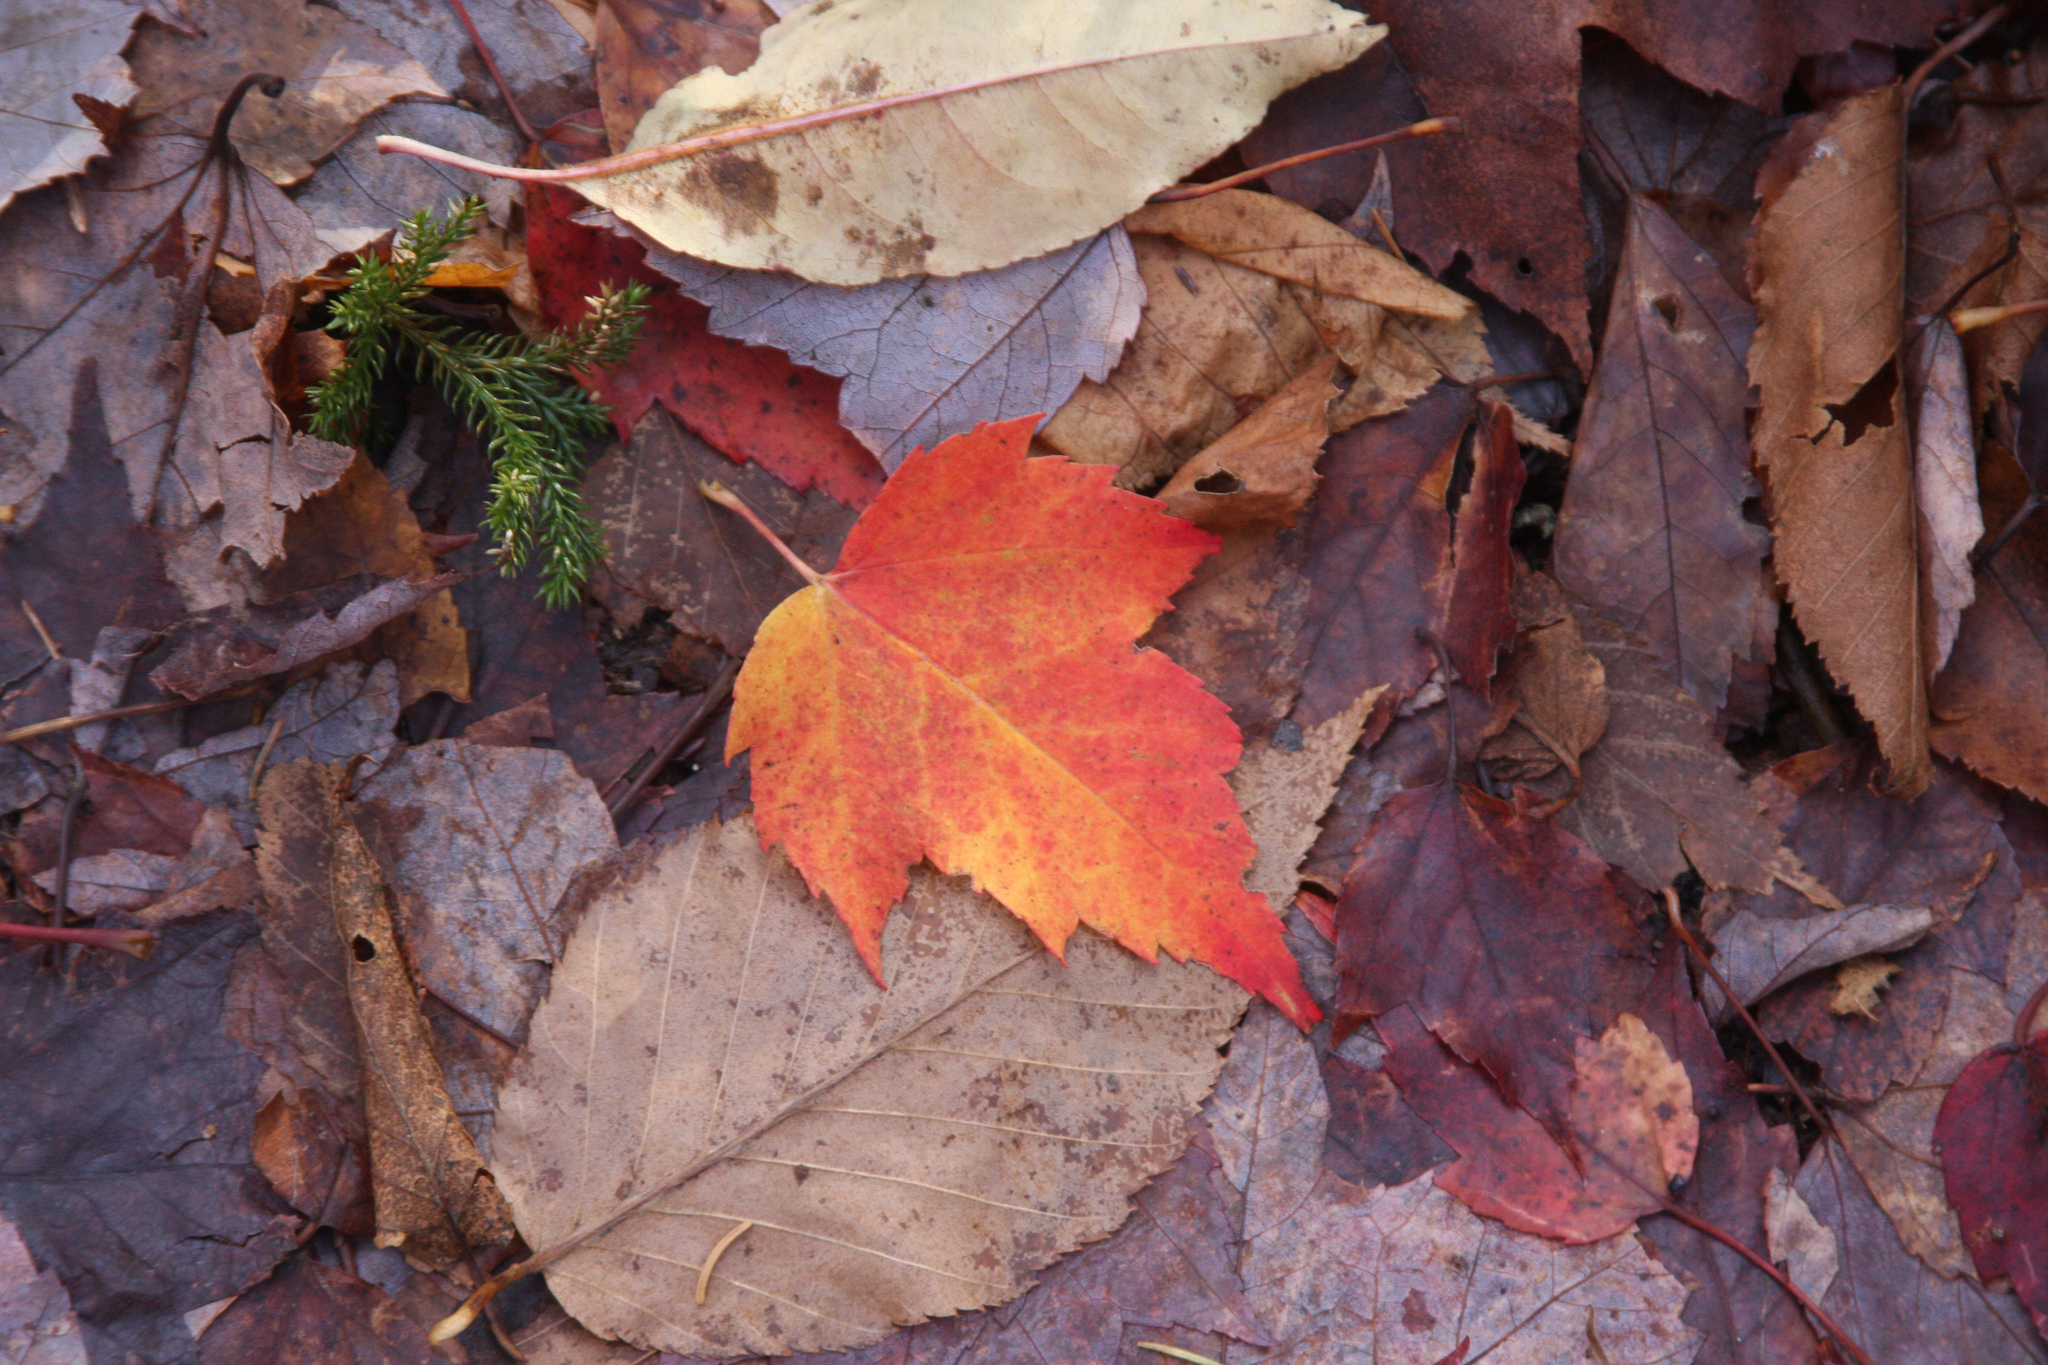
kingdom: Plantae
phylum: Tracheophyta
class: Magnoliopsida
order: Sapindales
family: Sapindaceae
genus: Acer
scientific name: Acer rubrum
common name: Red maple
